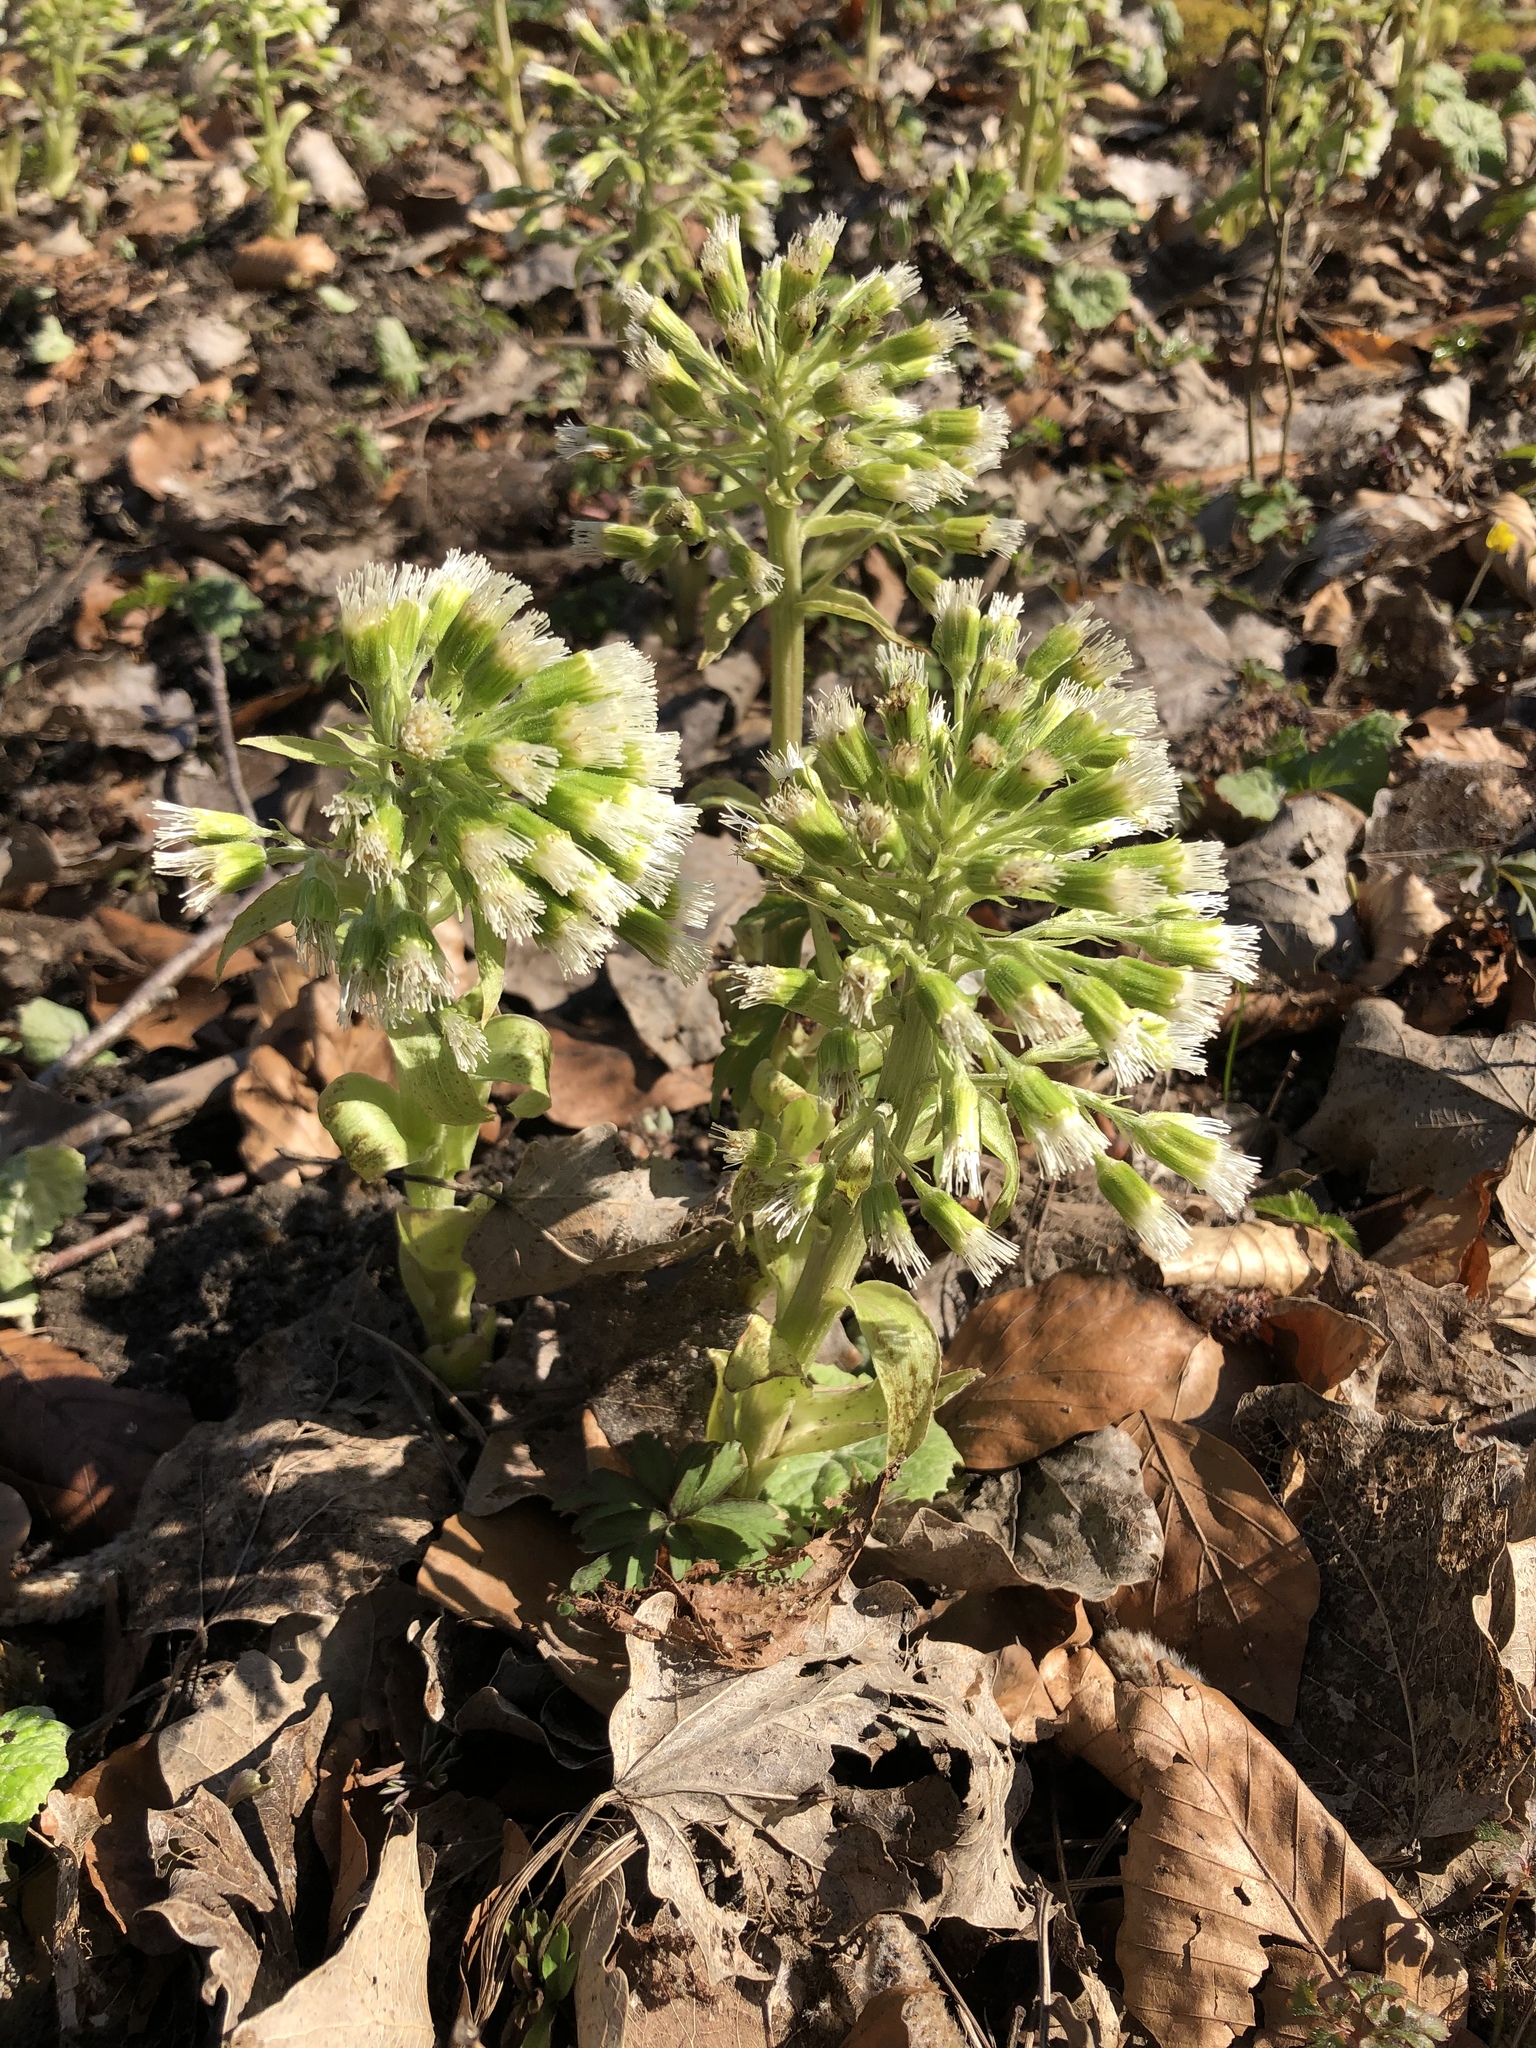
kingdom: Plantae
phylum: Tracheophyta
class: Magnoliopsida
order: Asterales
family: Asteraceae
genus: Petasites
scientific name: Petasites albus
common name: White butterbur
